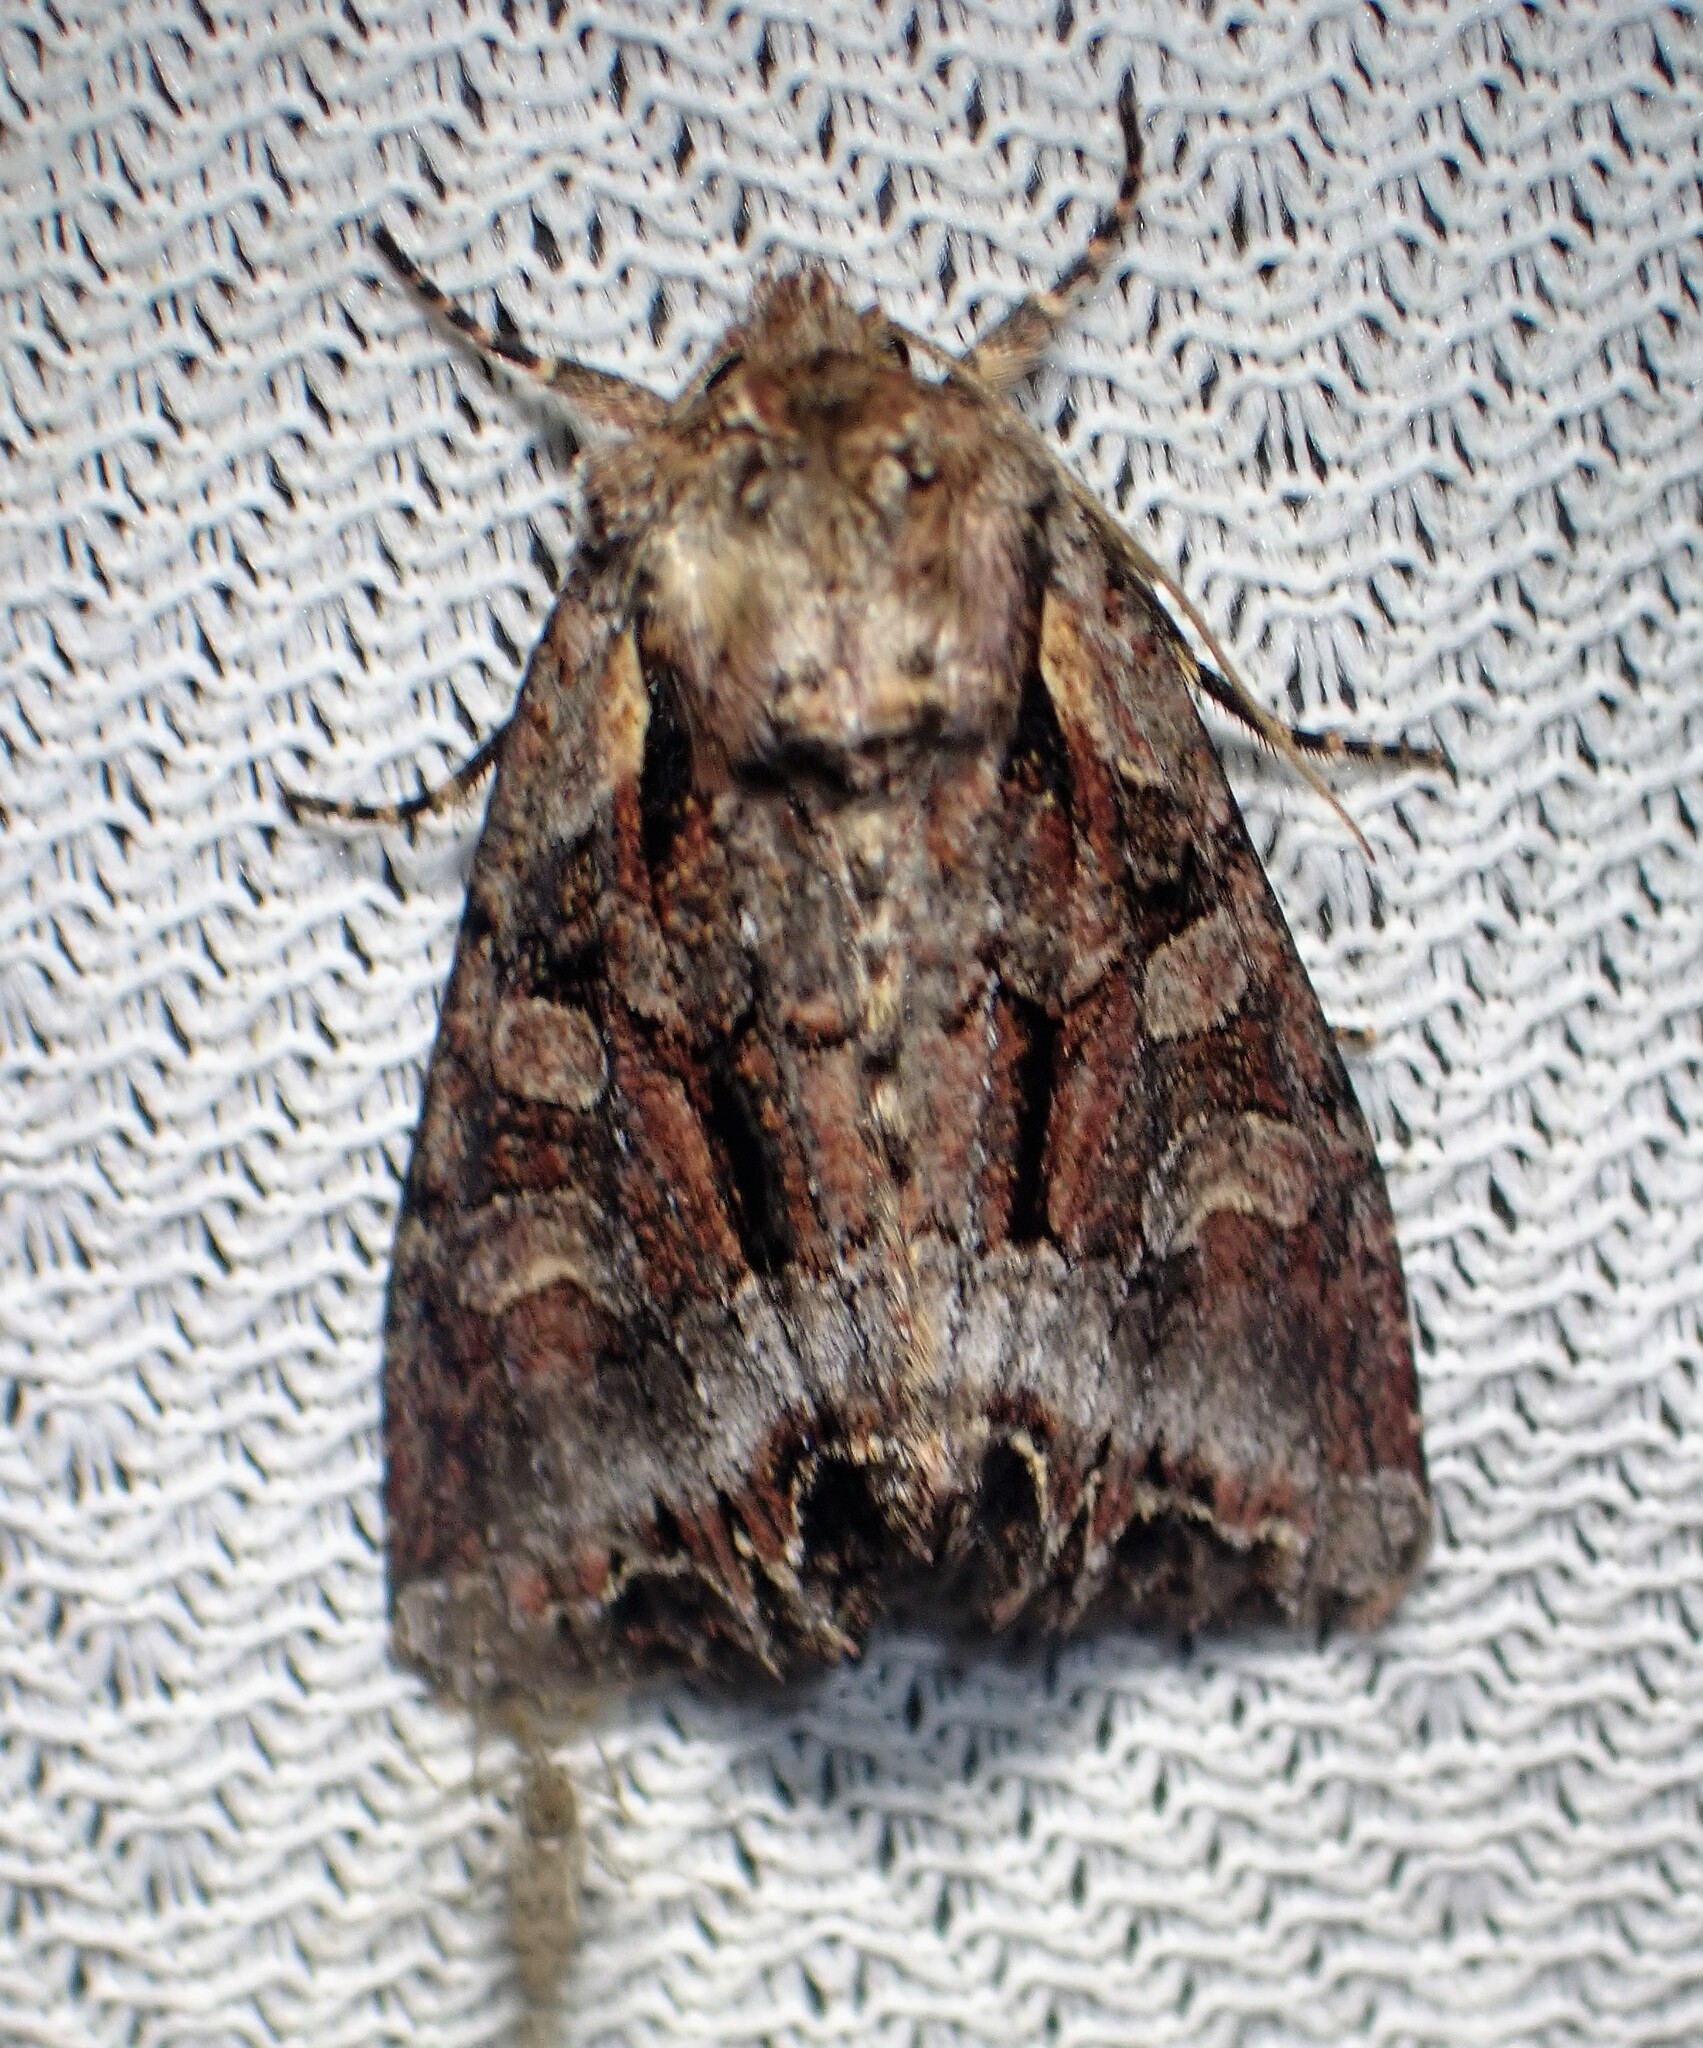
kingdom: Animalia
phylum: Arthropoda
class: Insecta
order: Lepidoptera
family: Noctuidae
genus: Lacanobia
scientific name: Lacanobia grandis
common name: Grand arches moth
